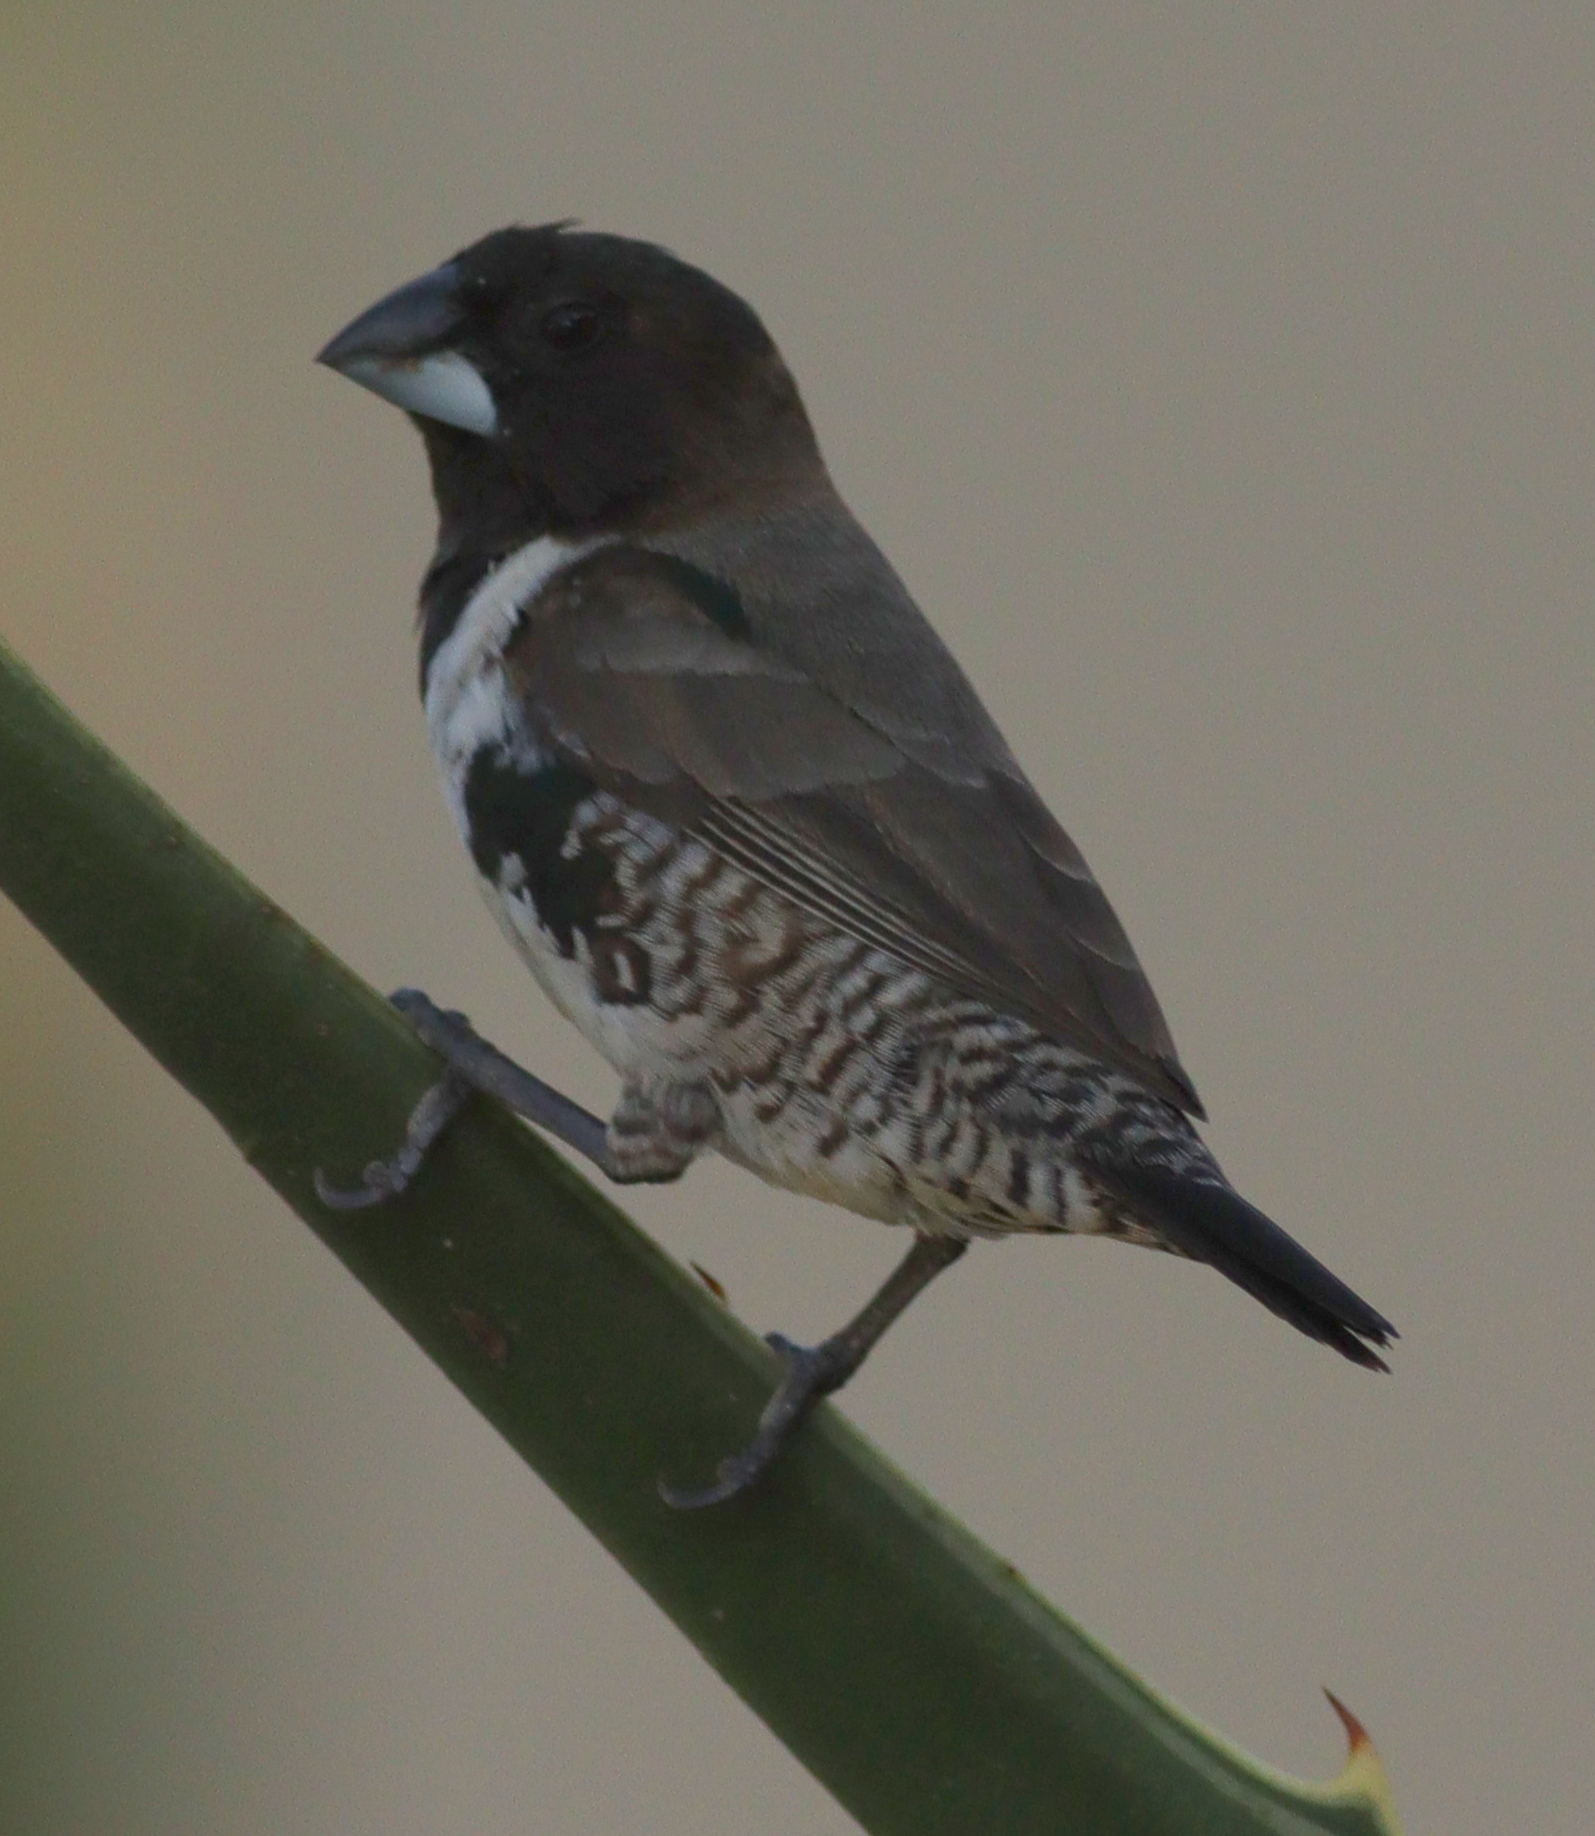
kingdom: Animalia
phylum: Chordata
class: Aves
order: Passeriformes
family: Estrildidae
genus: Lonchura
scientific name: Lonchura cucullata
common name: Bronze mannikin
